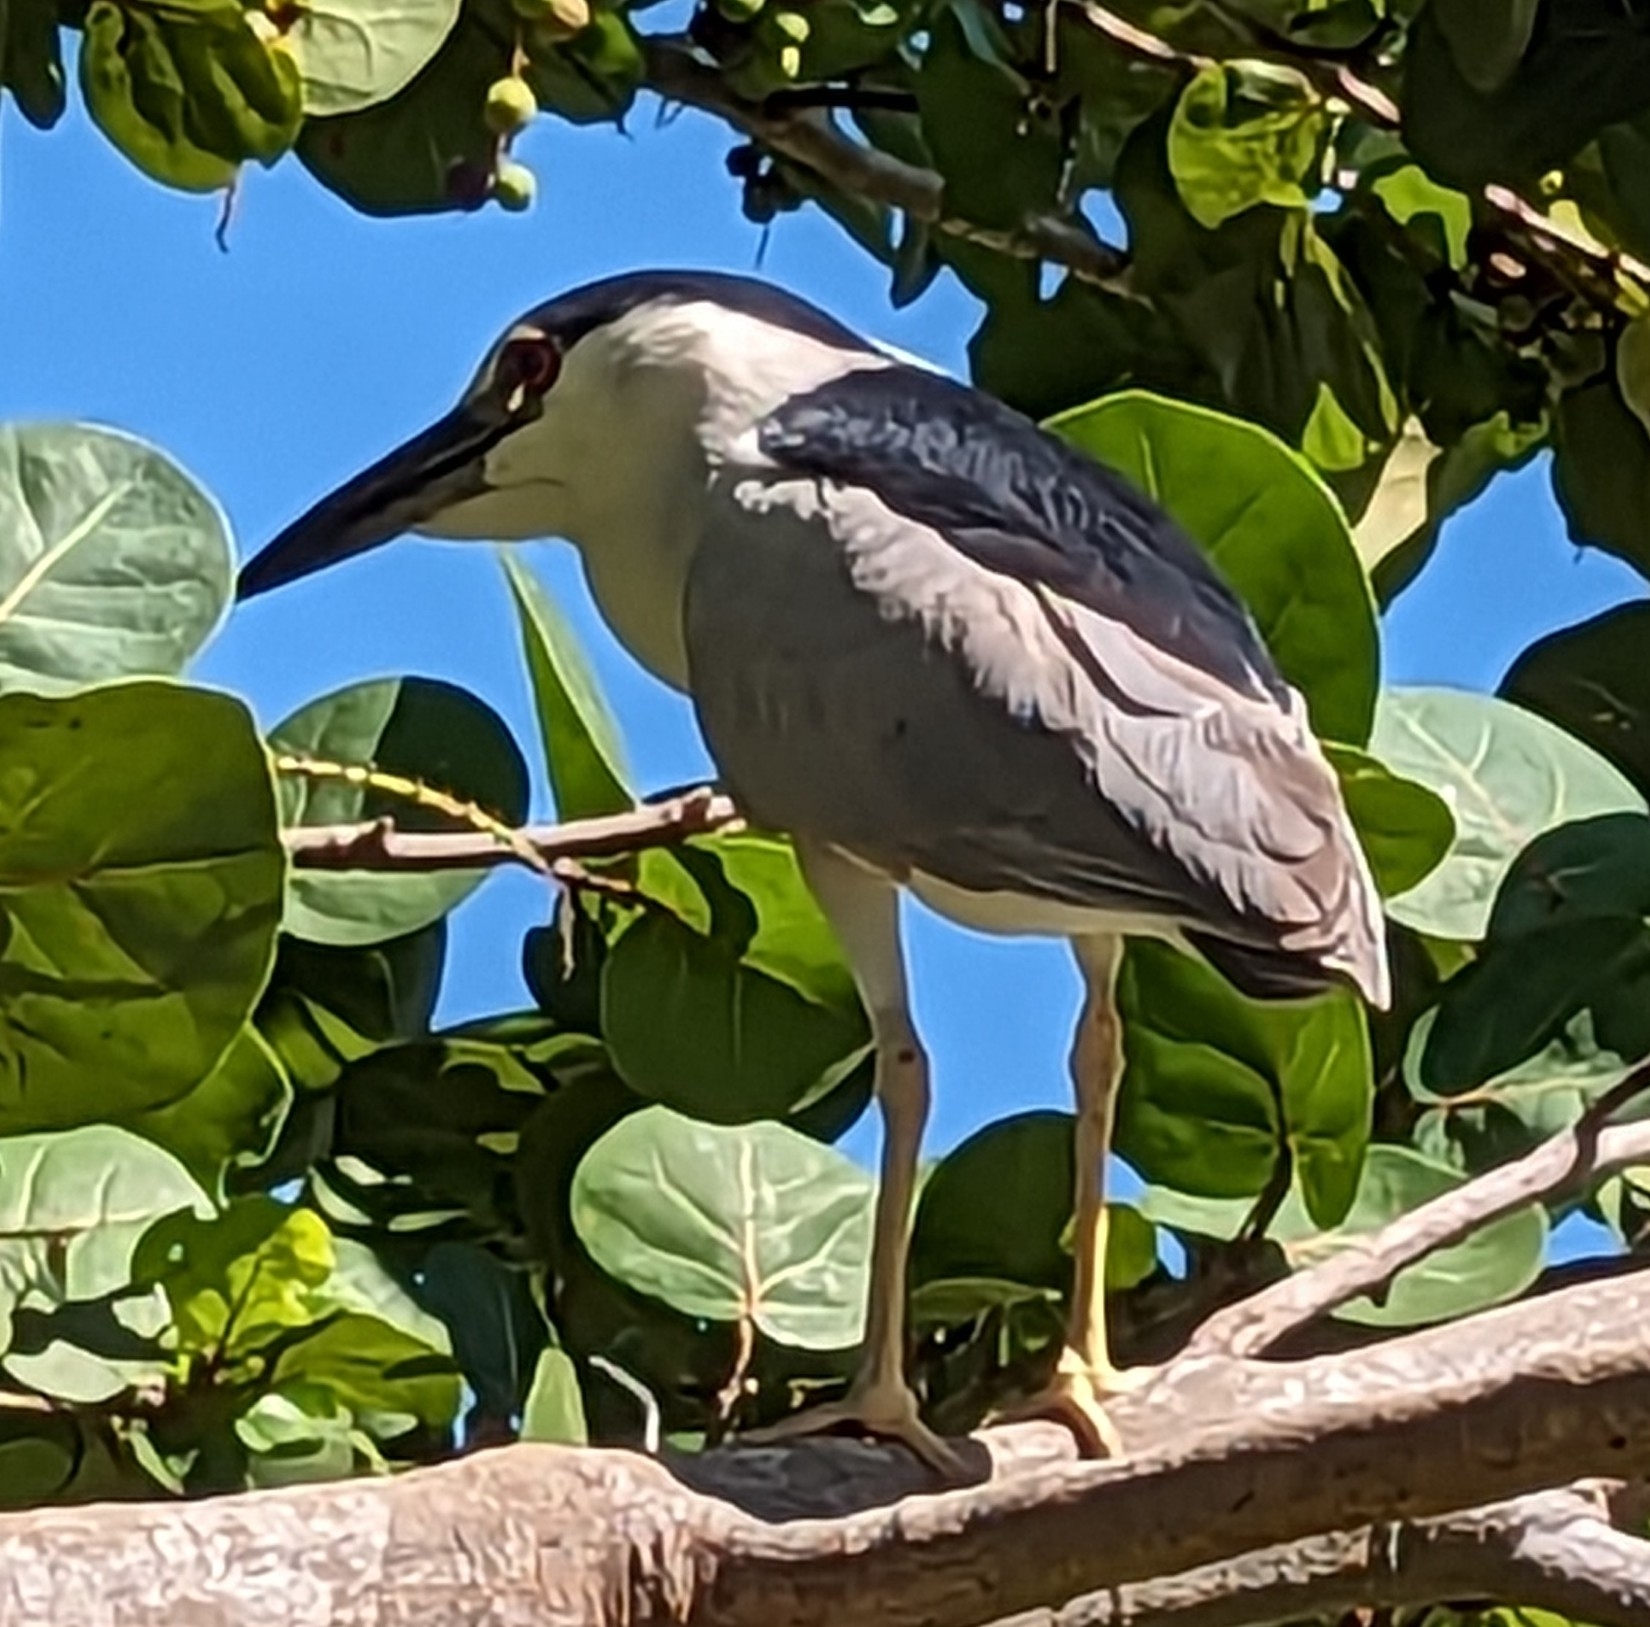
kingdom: Animalia
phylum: Chordata
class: Aves
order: Pelecaniformes
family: Ardeidae
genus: Nycticorax
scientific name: Nycticorax nycticorax
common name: Black-crowned night heron
